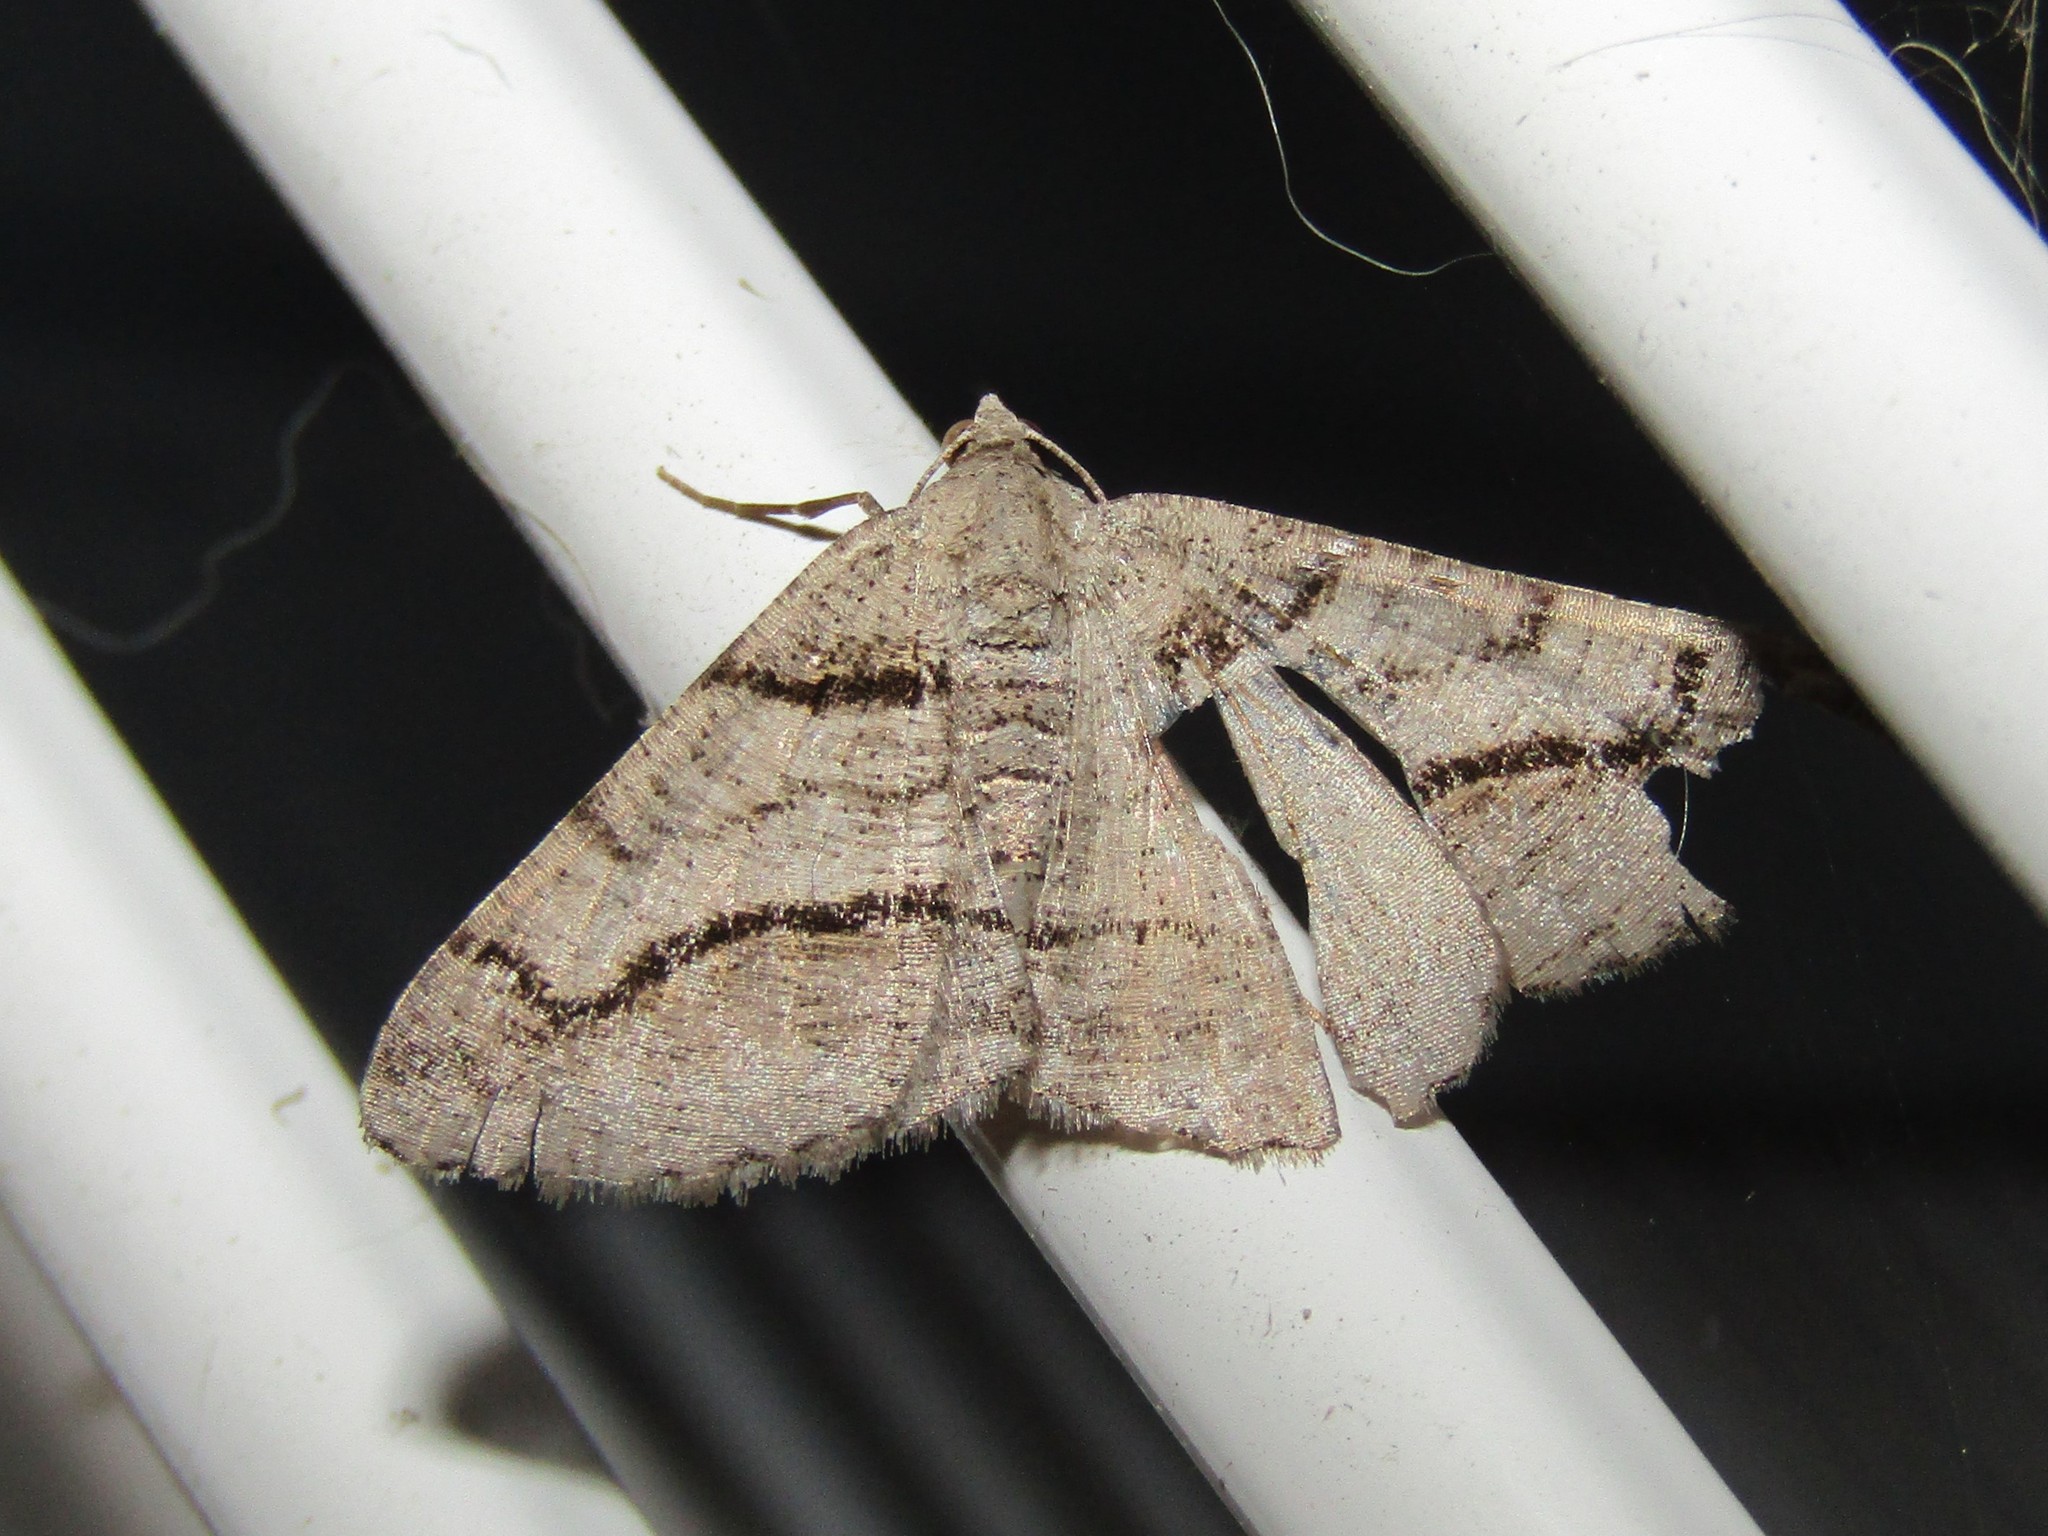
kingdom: Animalia
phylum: Arthropoda
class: Insecta
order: Lepidoptera
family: Geometridae
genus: Digrammia
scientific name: Digrammia continuata
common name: Curve-lined angle
